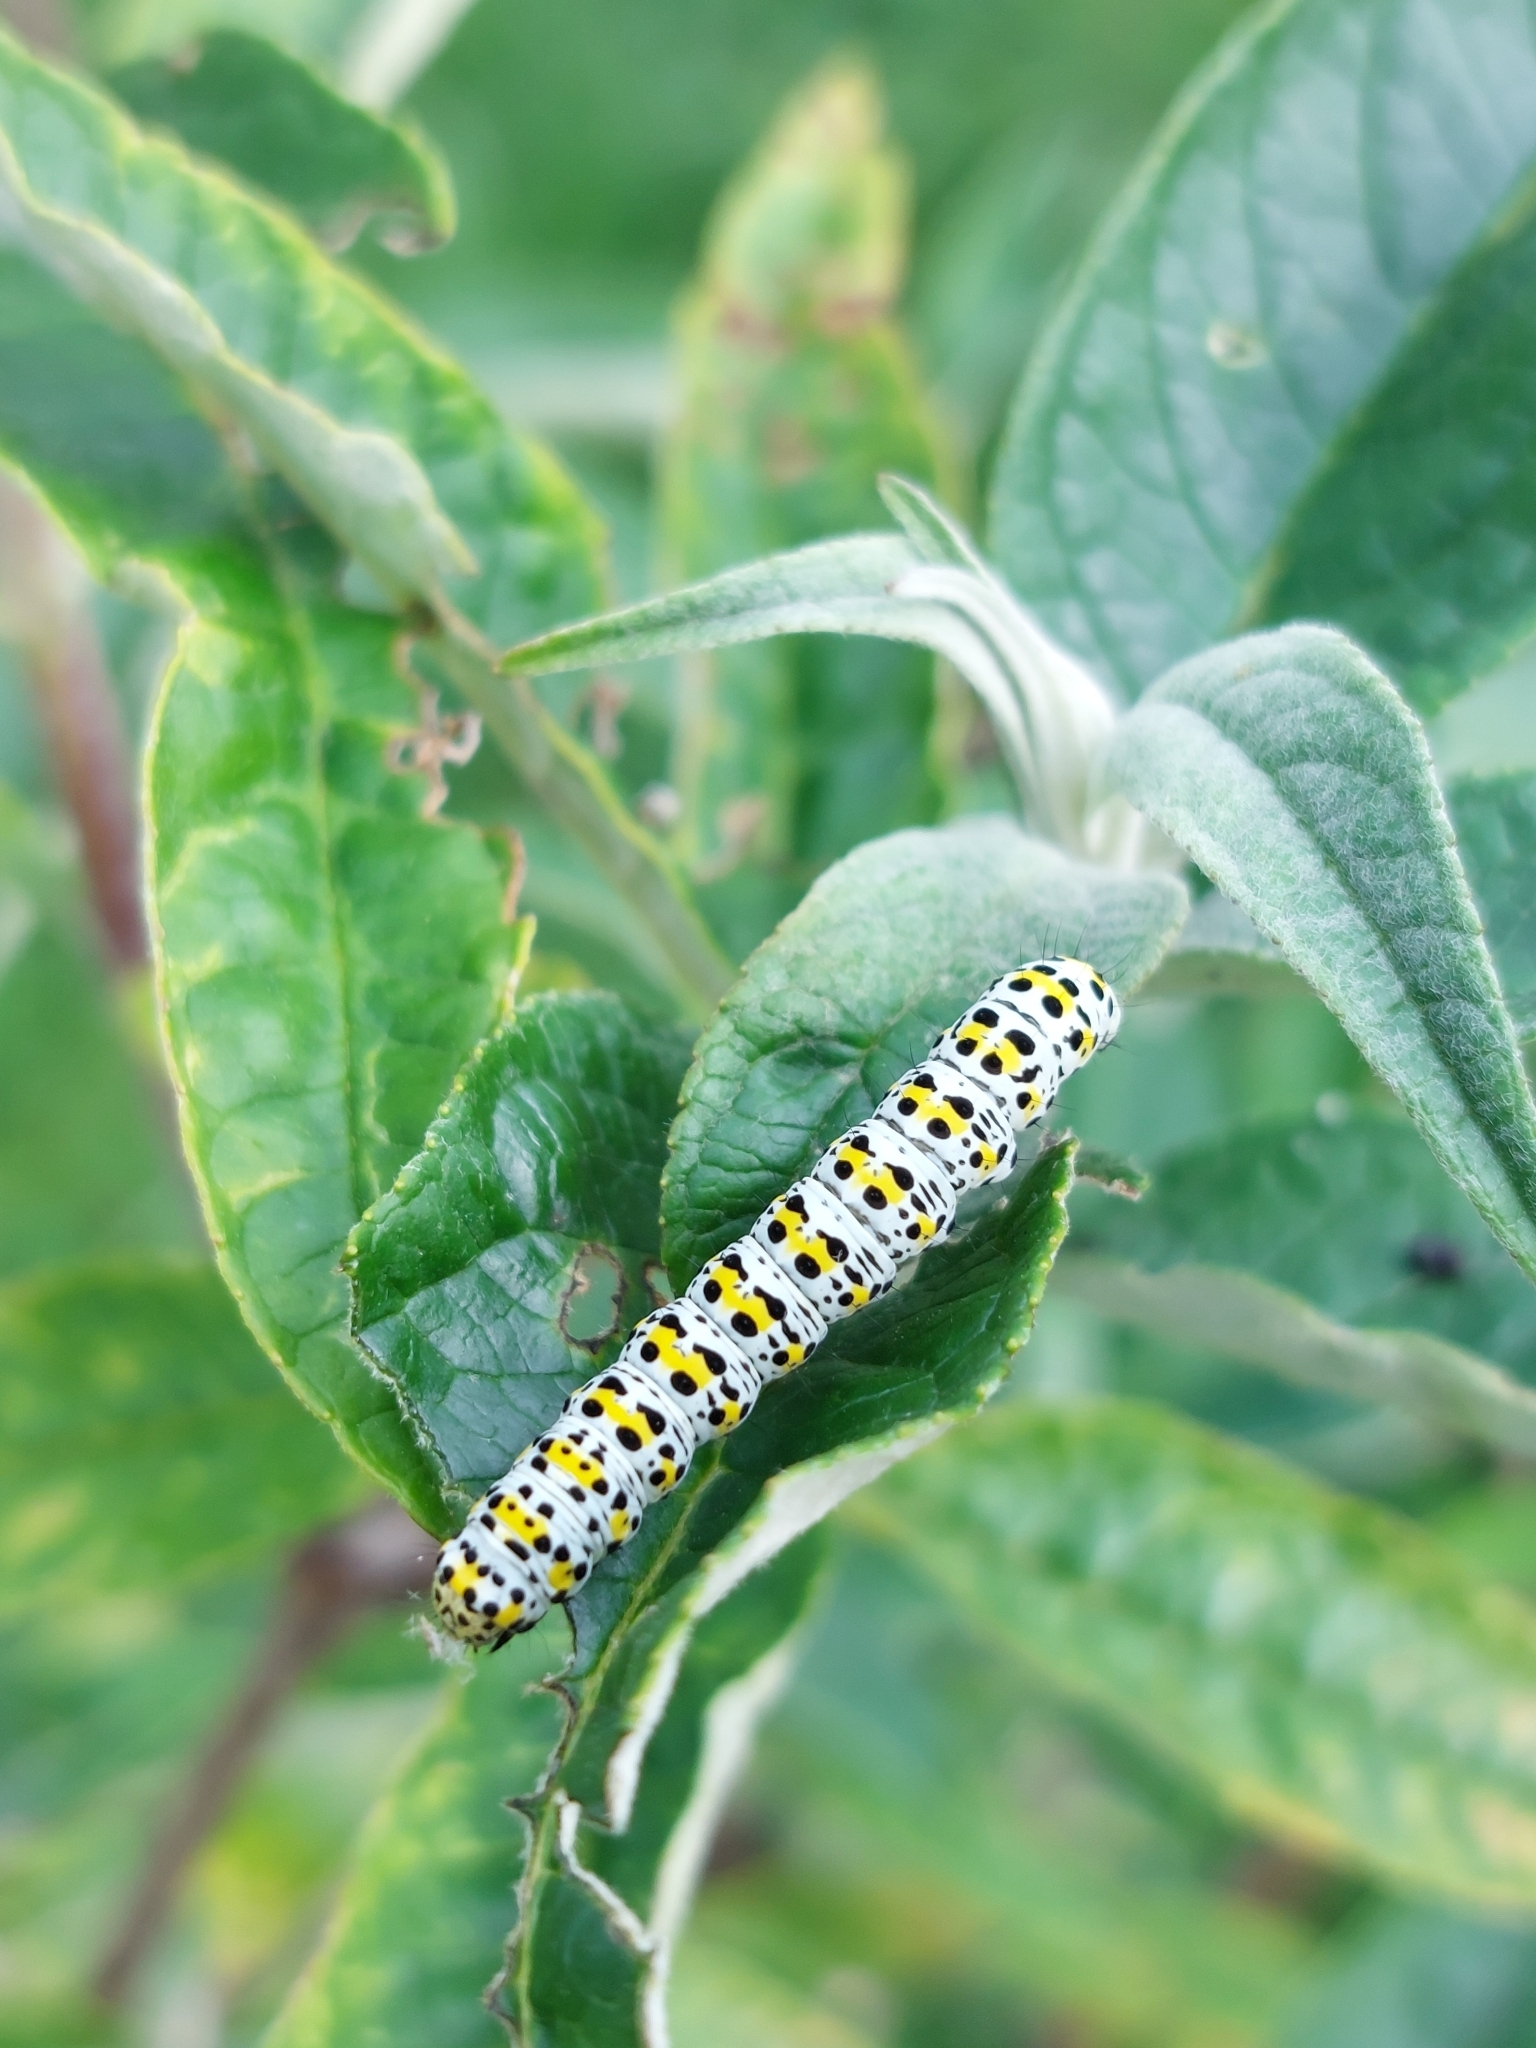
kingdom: Animalia
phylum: Arthropoda
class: Insecta
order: Lepidoptera
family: Noctuidae
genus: Cucullia
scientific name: Cucullia verbasci
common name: Mullein
